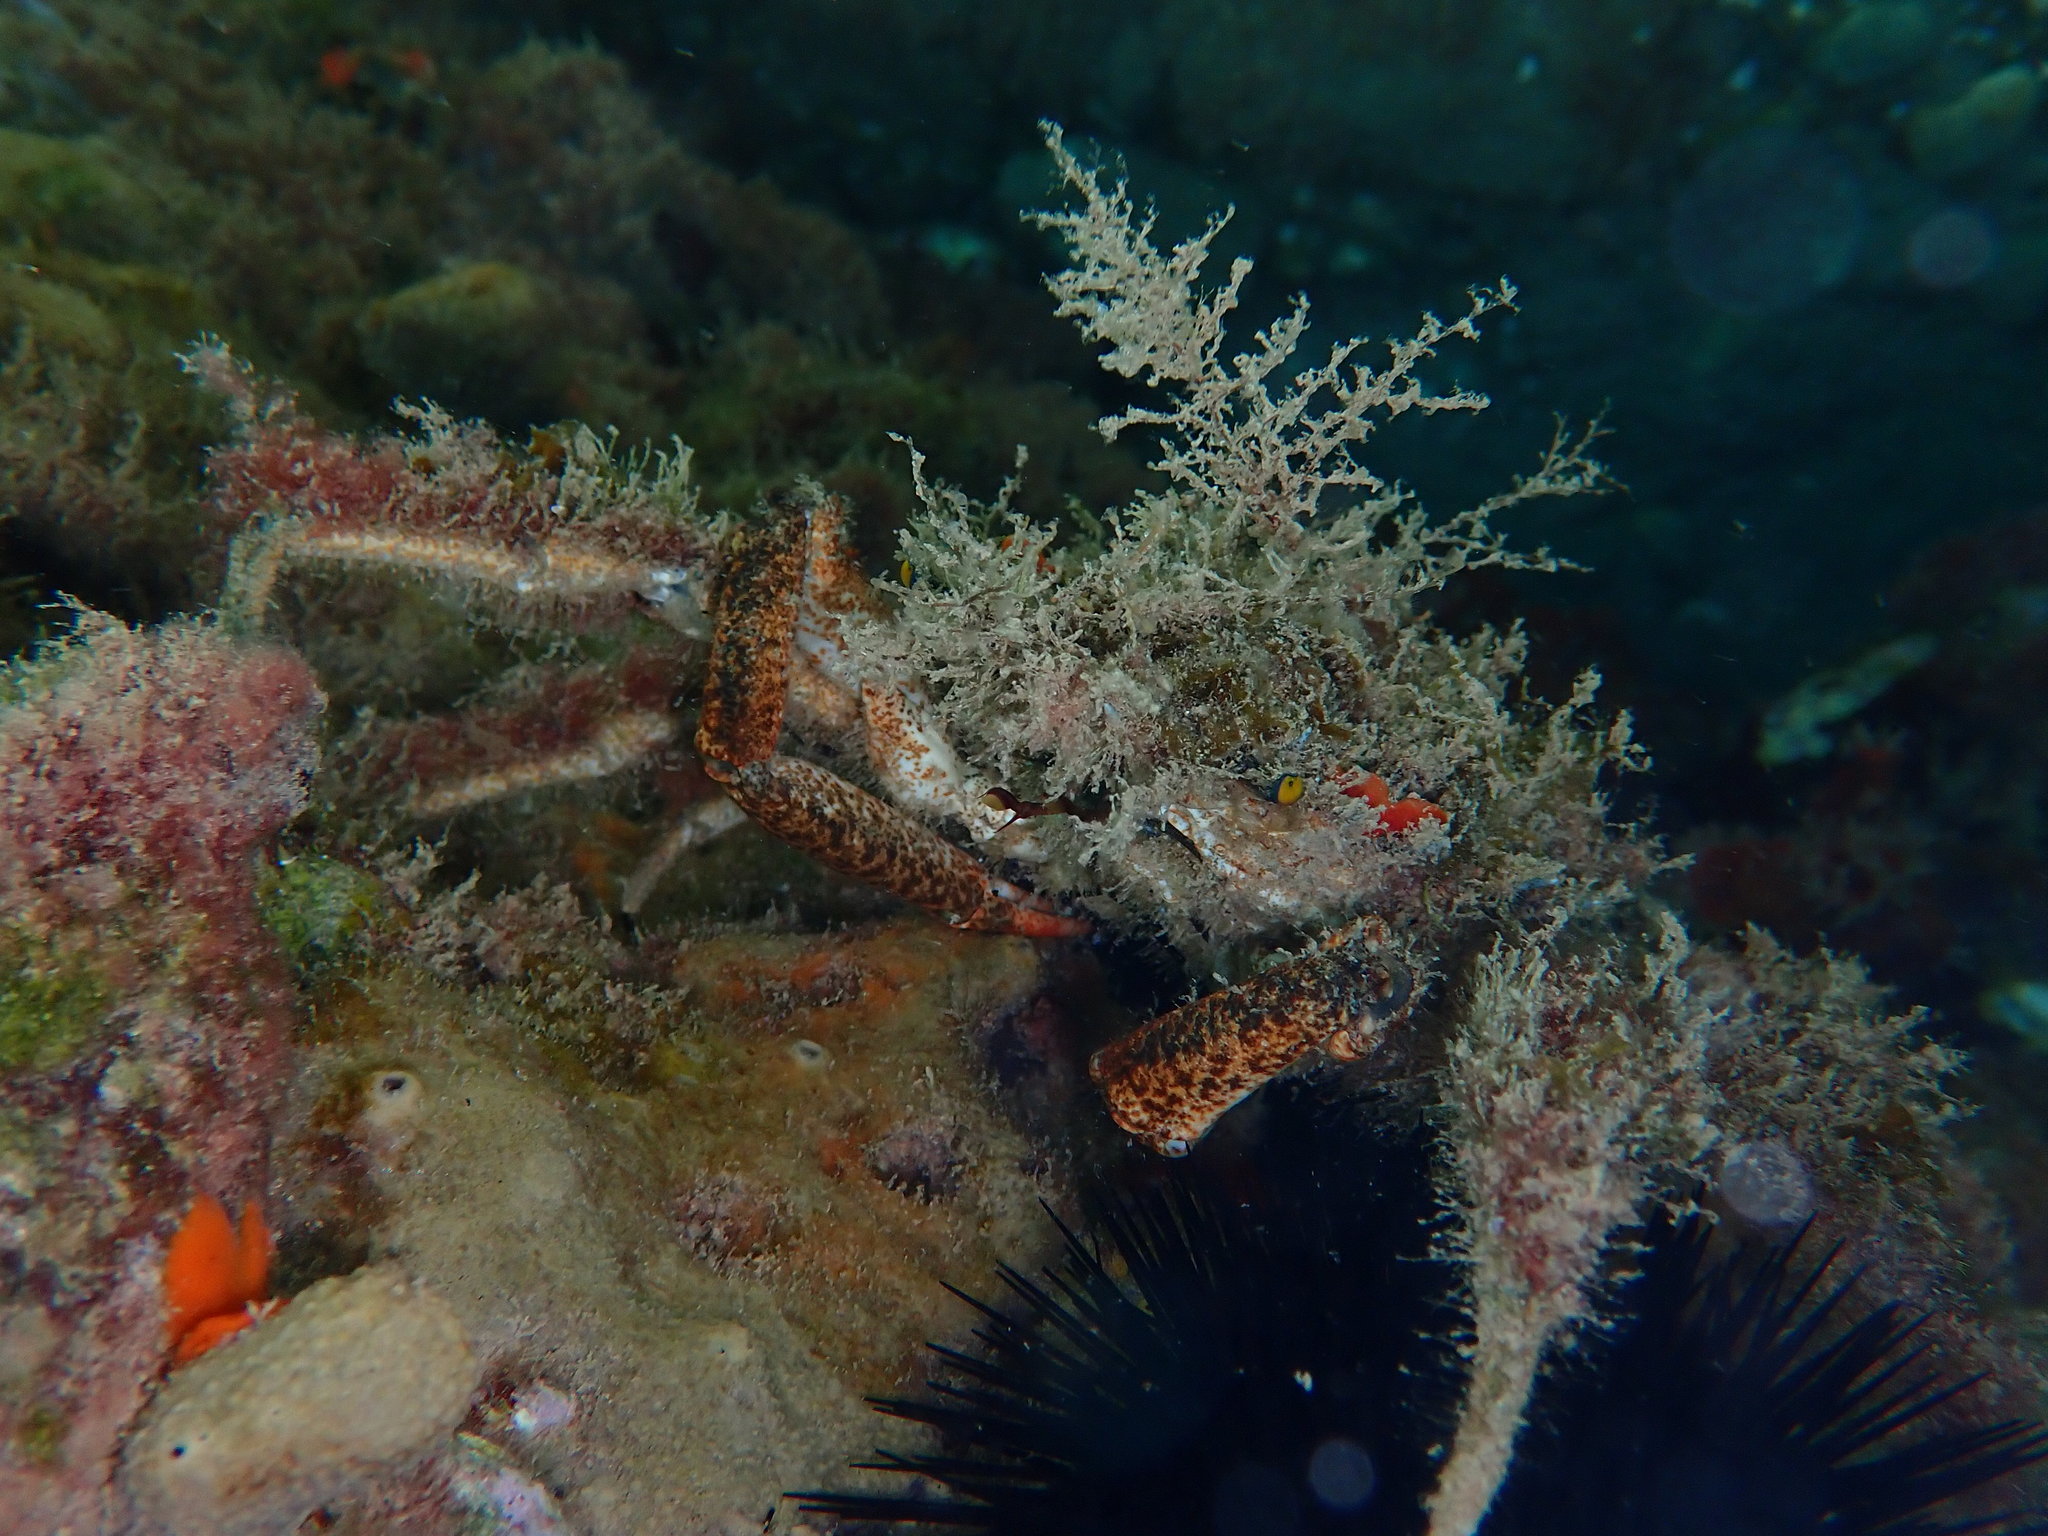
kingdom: Animalia
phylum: Arthropoda
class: Malacostraca
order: Decapoda
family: Majidae
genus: Maja
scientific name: Maja crispata
